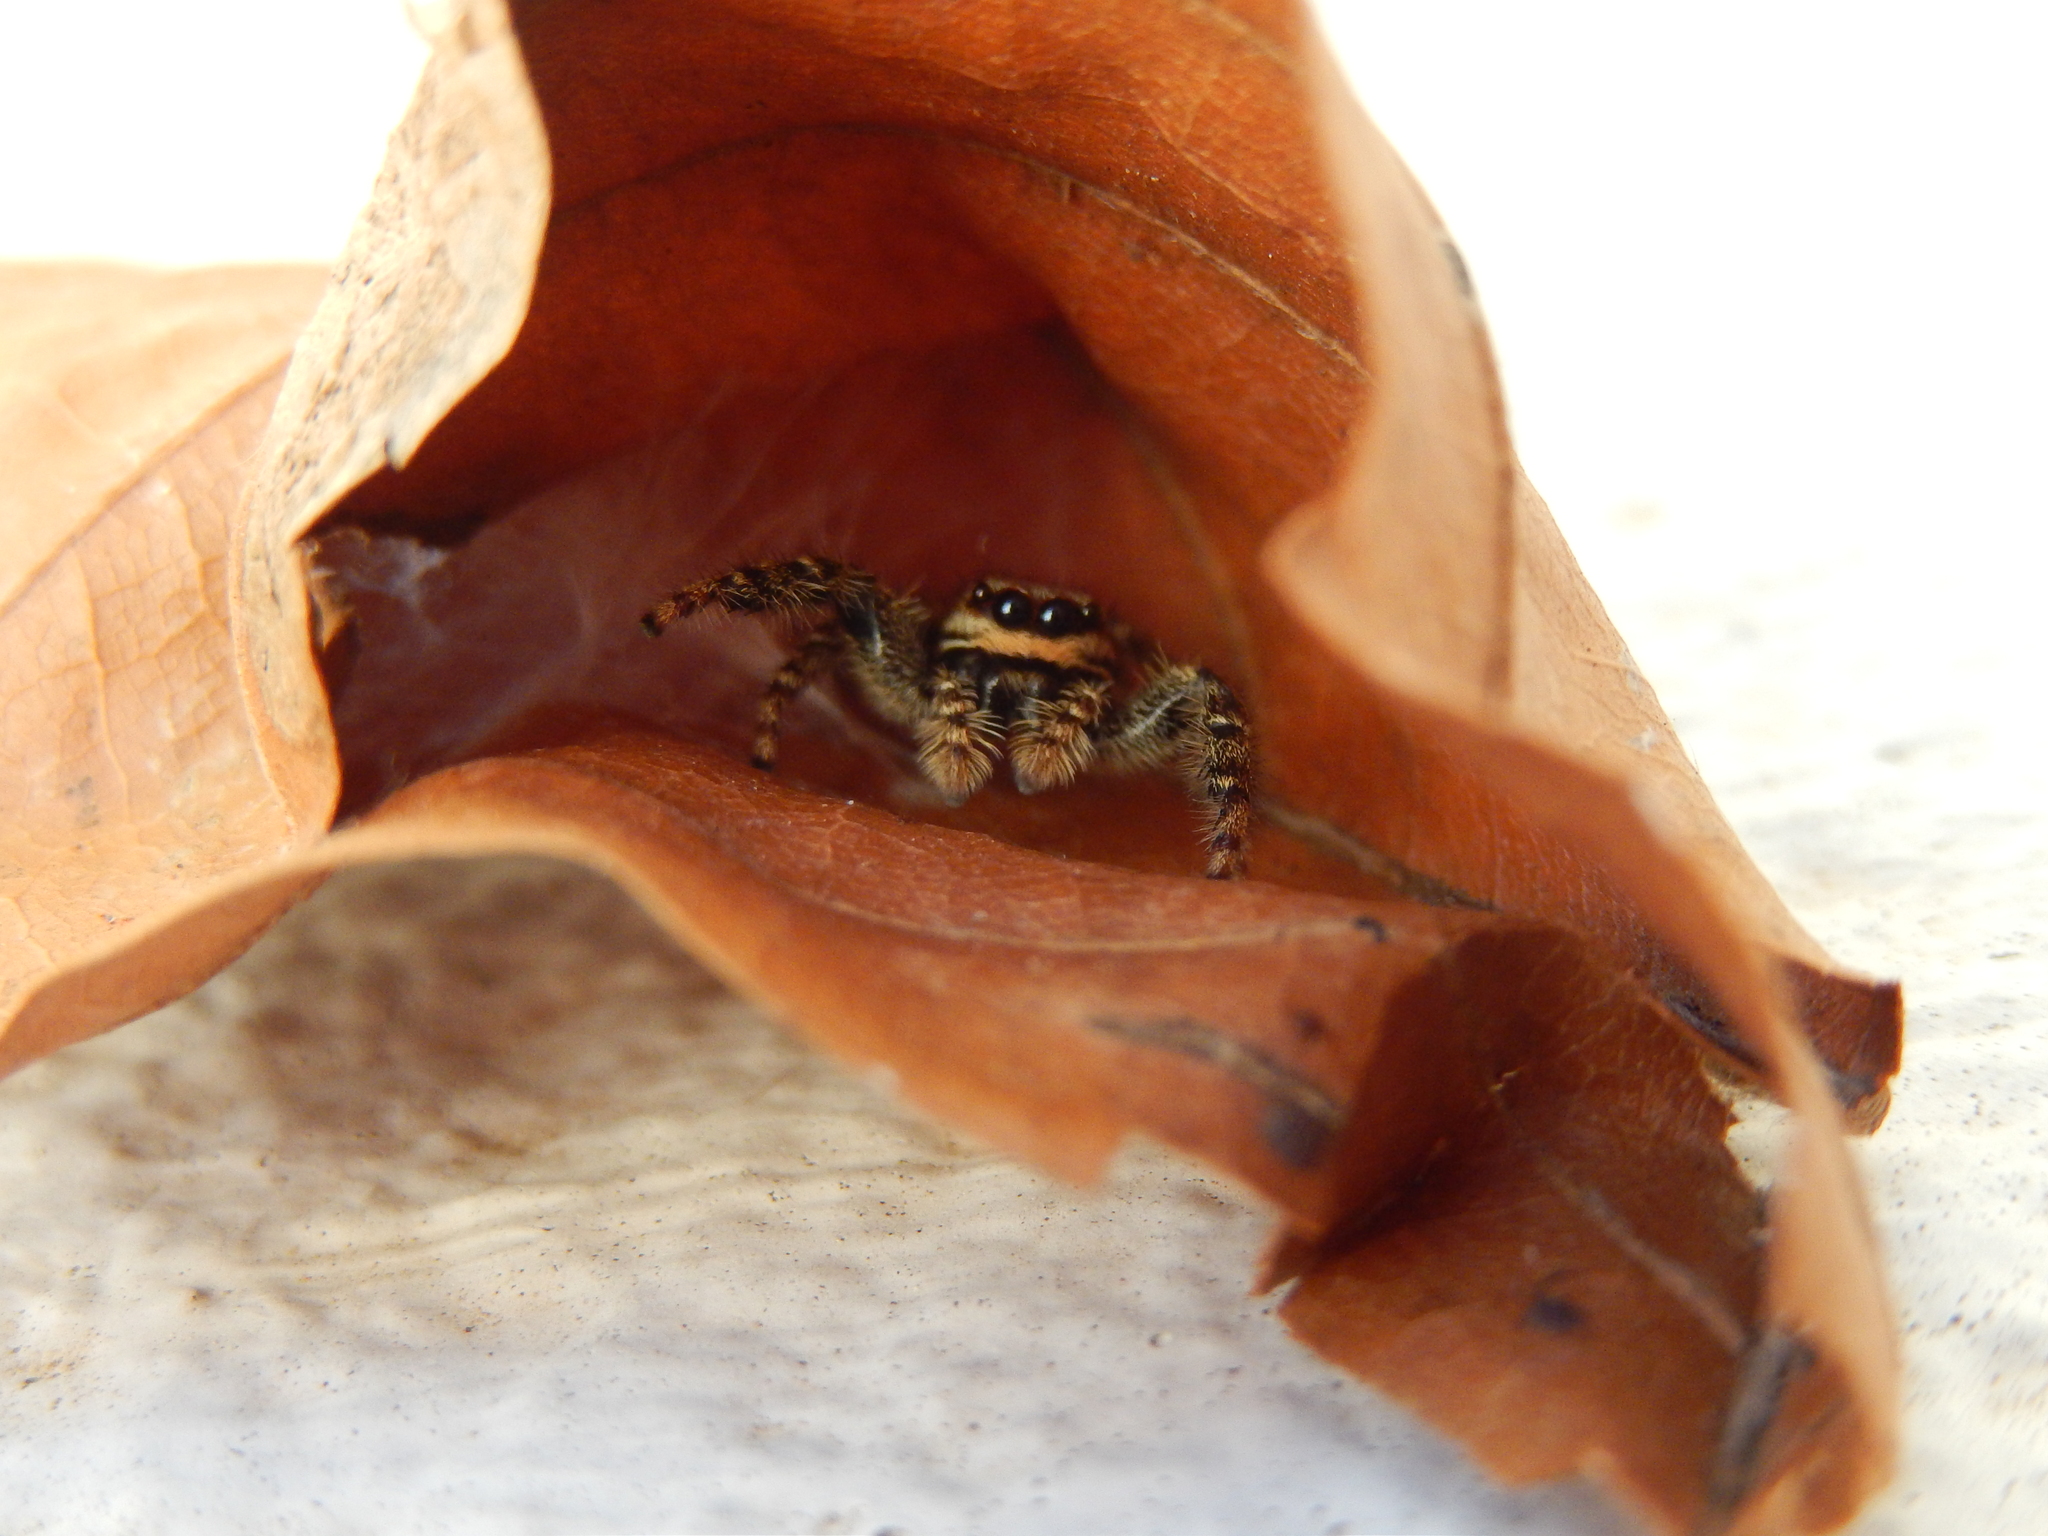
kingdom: Animalia
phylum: Arthropoda
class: Arachnida
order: Araneae
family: Salticidae
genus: Marpissa
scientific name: Marpissa muscosa
